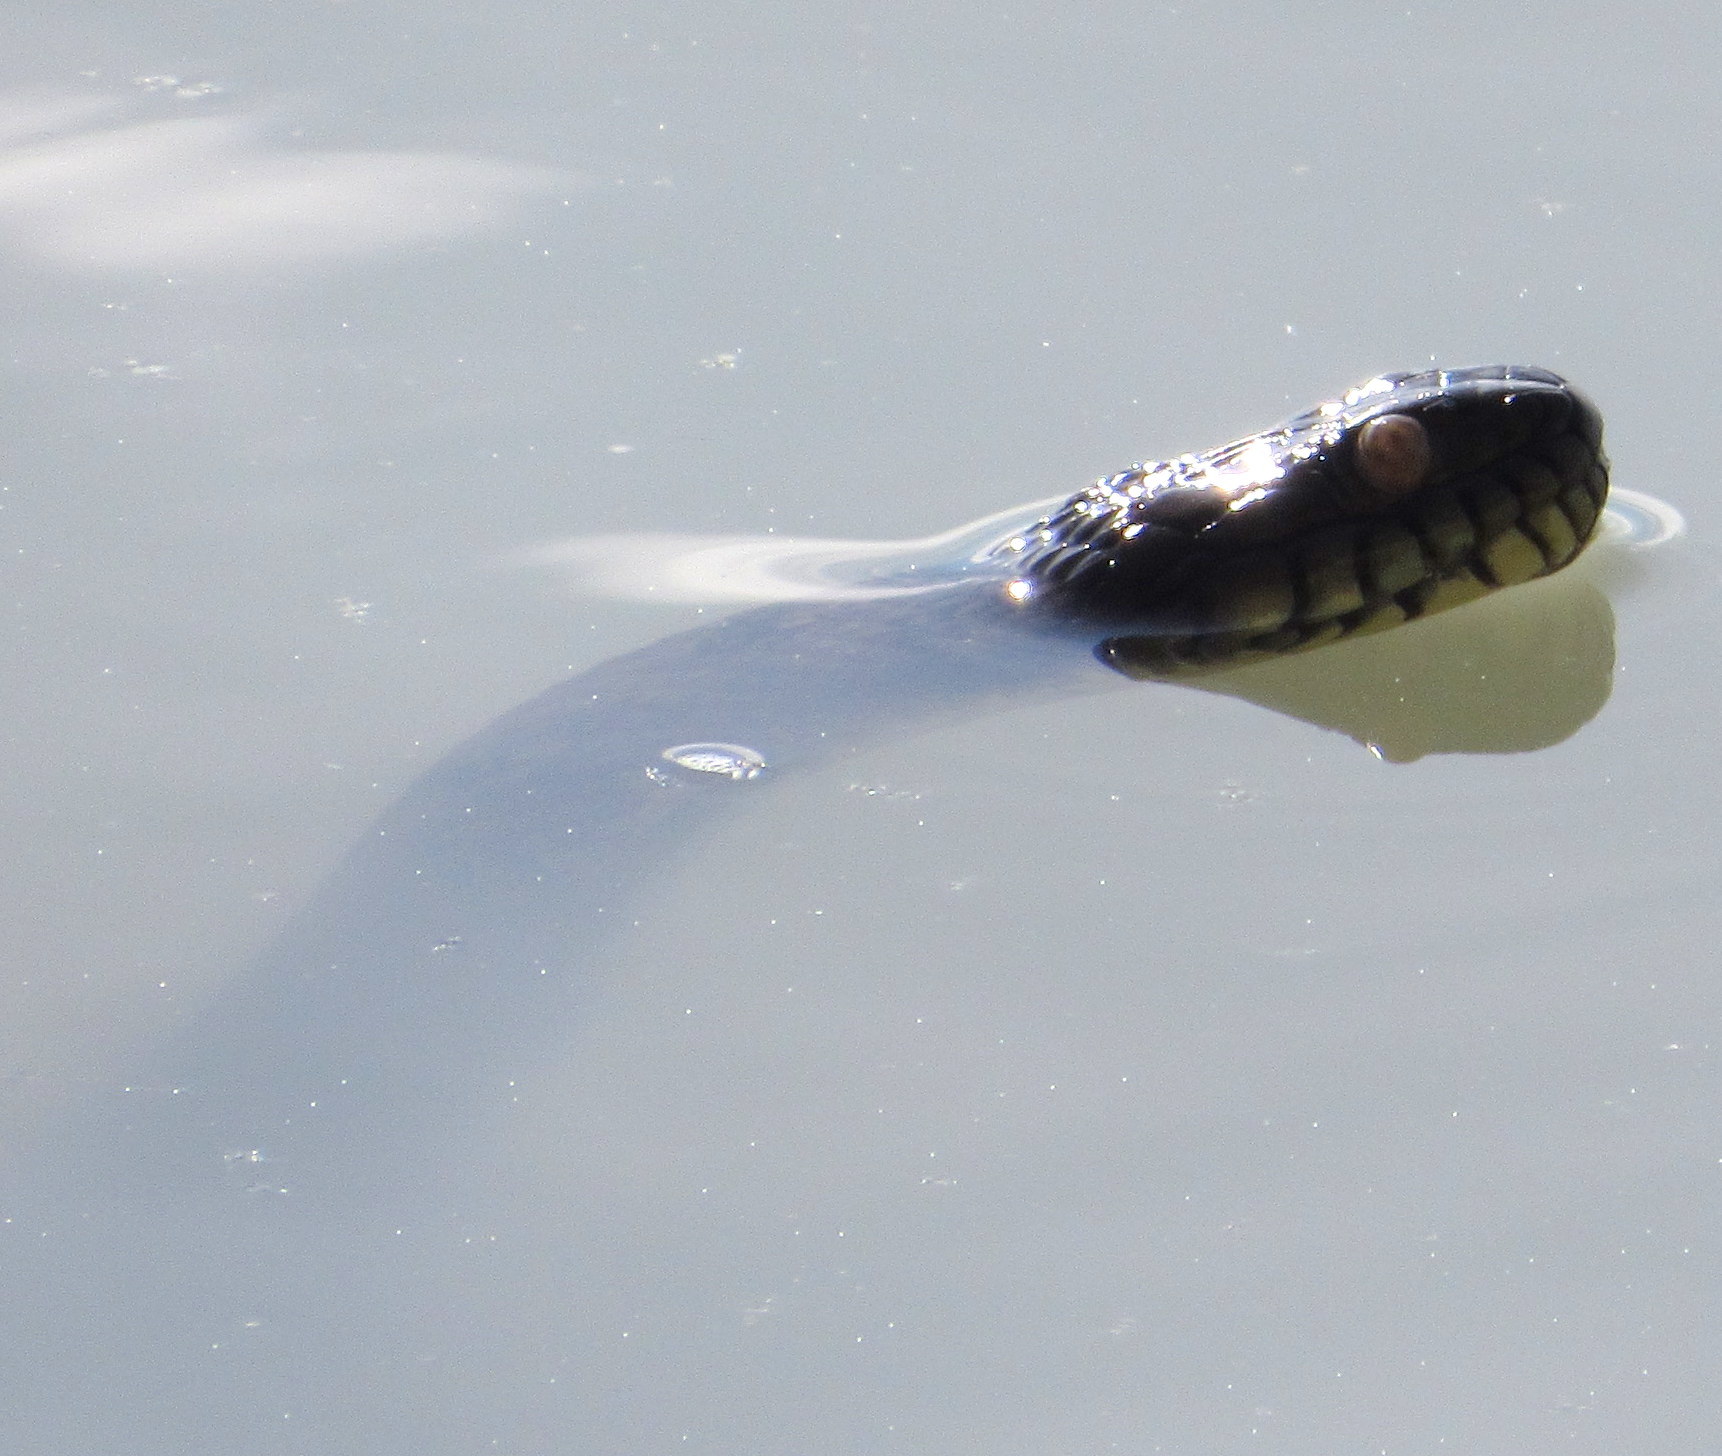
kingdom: Animalia
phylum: Chordata
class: Squamata
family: Colubridae
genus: Nerodia
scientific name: Nerodia rhombifer
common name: Diamondback water snake
